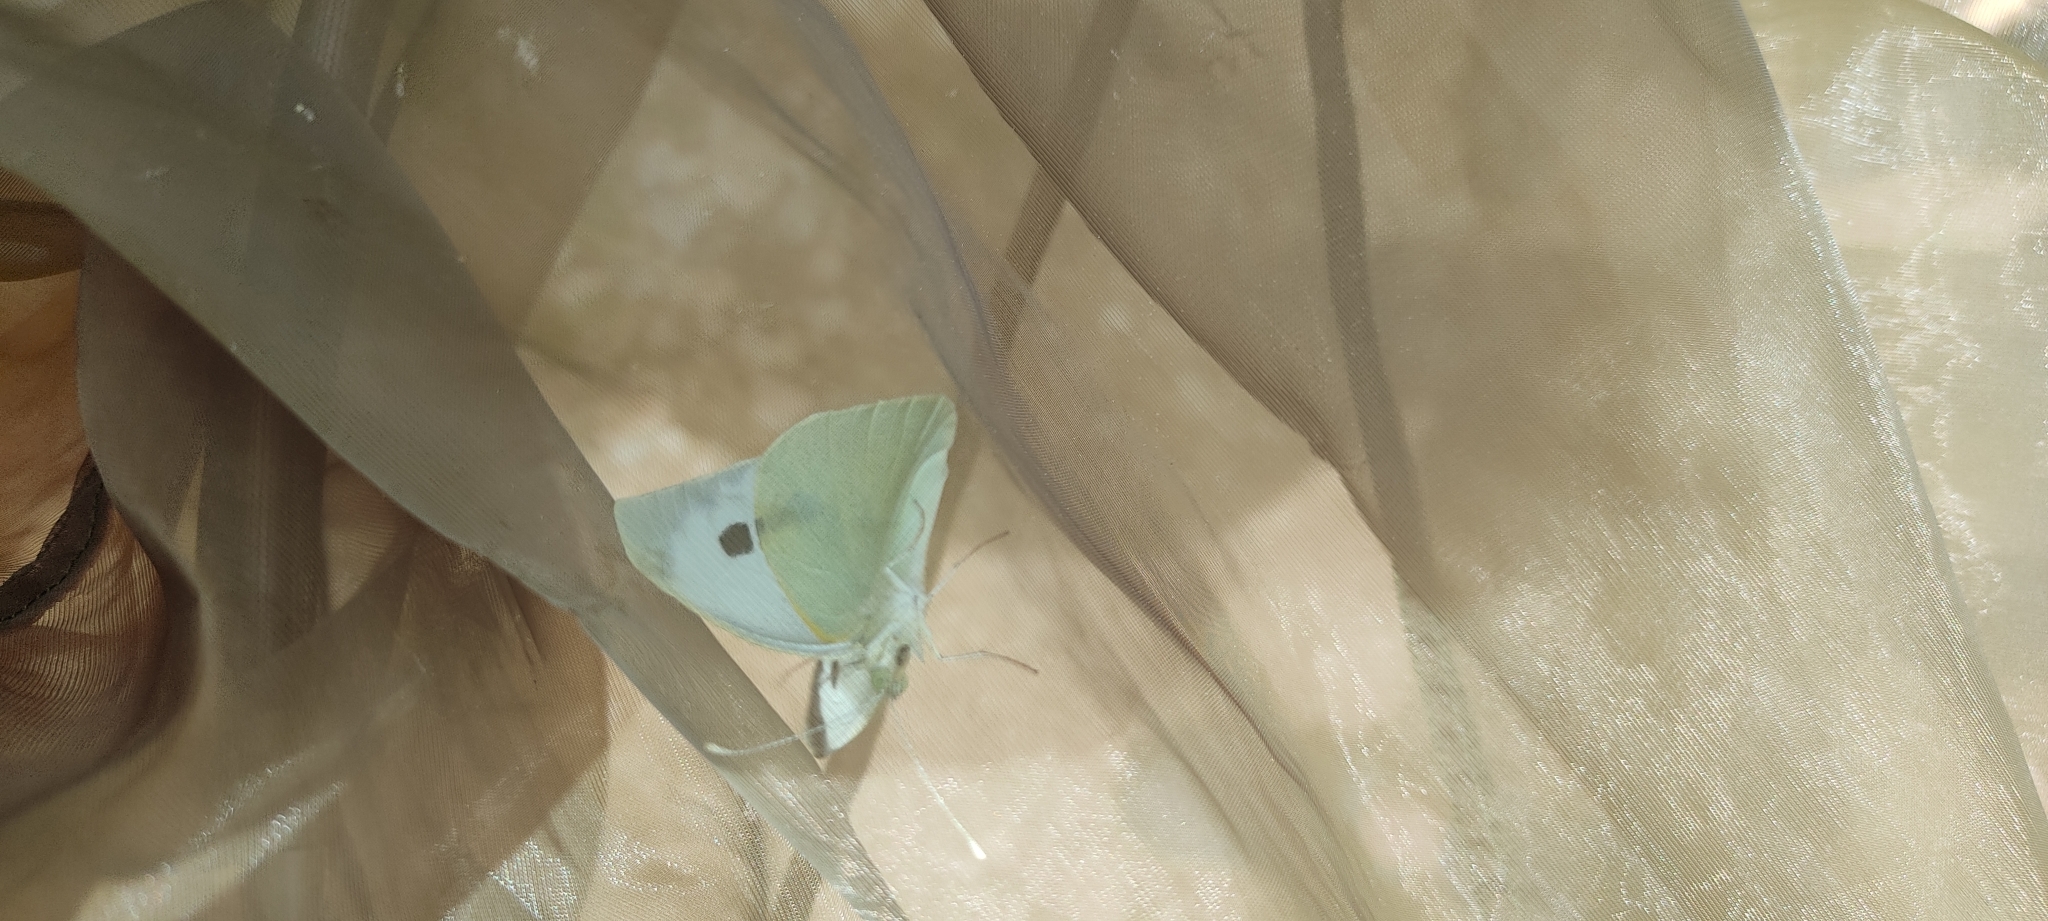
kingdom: Animalia
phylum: Arthropoda
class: Insecta
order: Lepidoptera
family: Pieridae
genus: Pieris
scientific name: Pieris brassicae
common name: Large white
